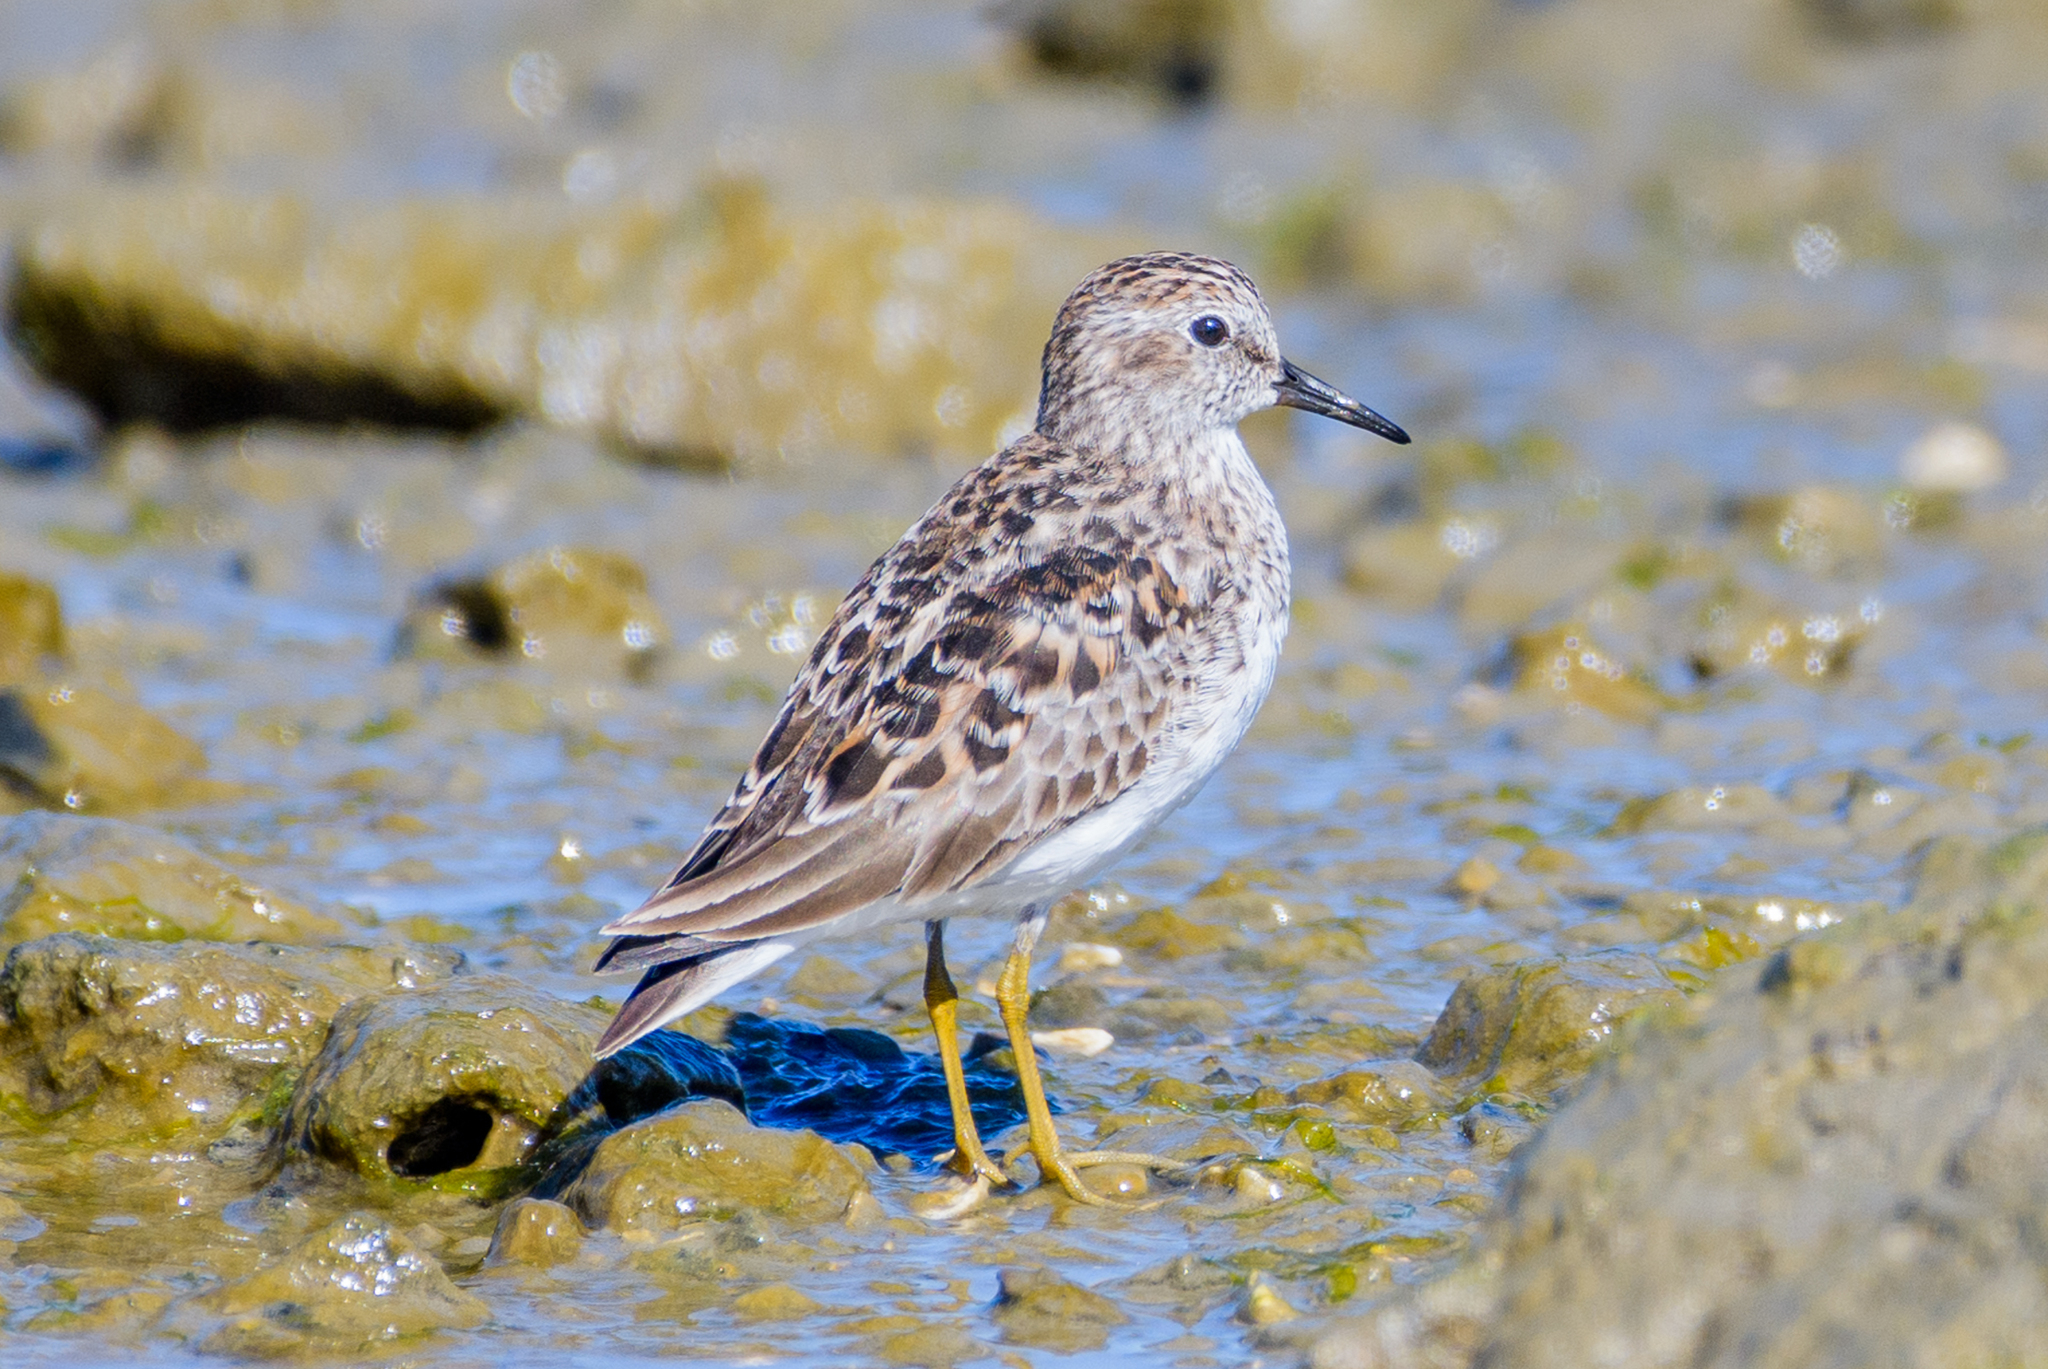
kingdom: Animalia
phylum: Chordata
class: Aves
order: Charadriiformes
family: Scolopacidae
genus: Calidris
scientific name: Calidris minutilla
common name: Least sandpiper
